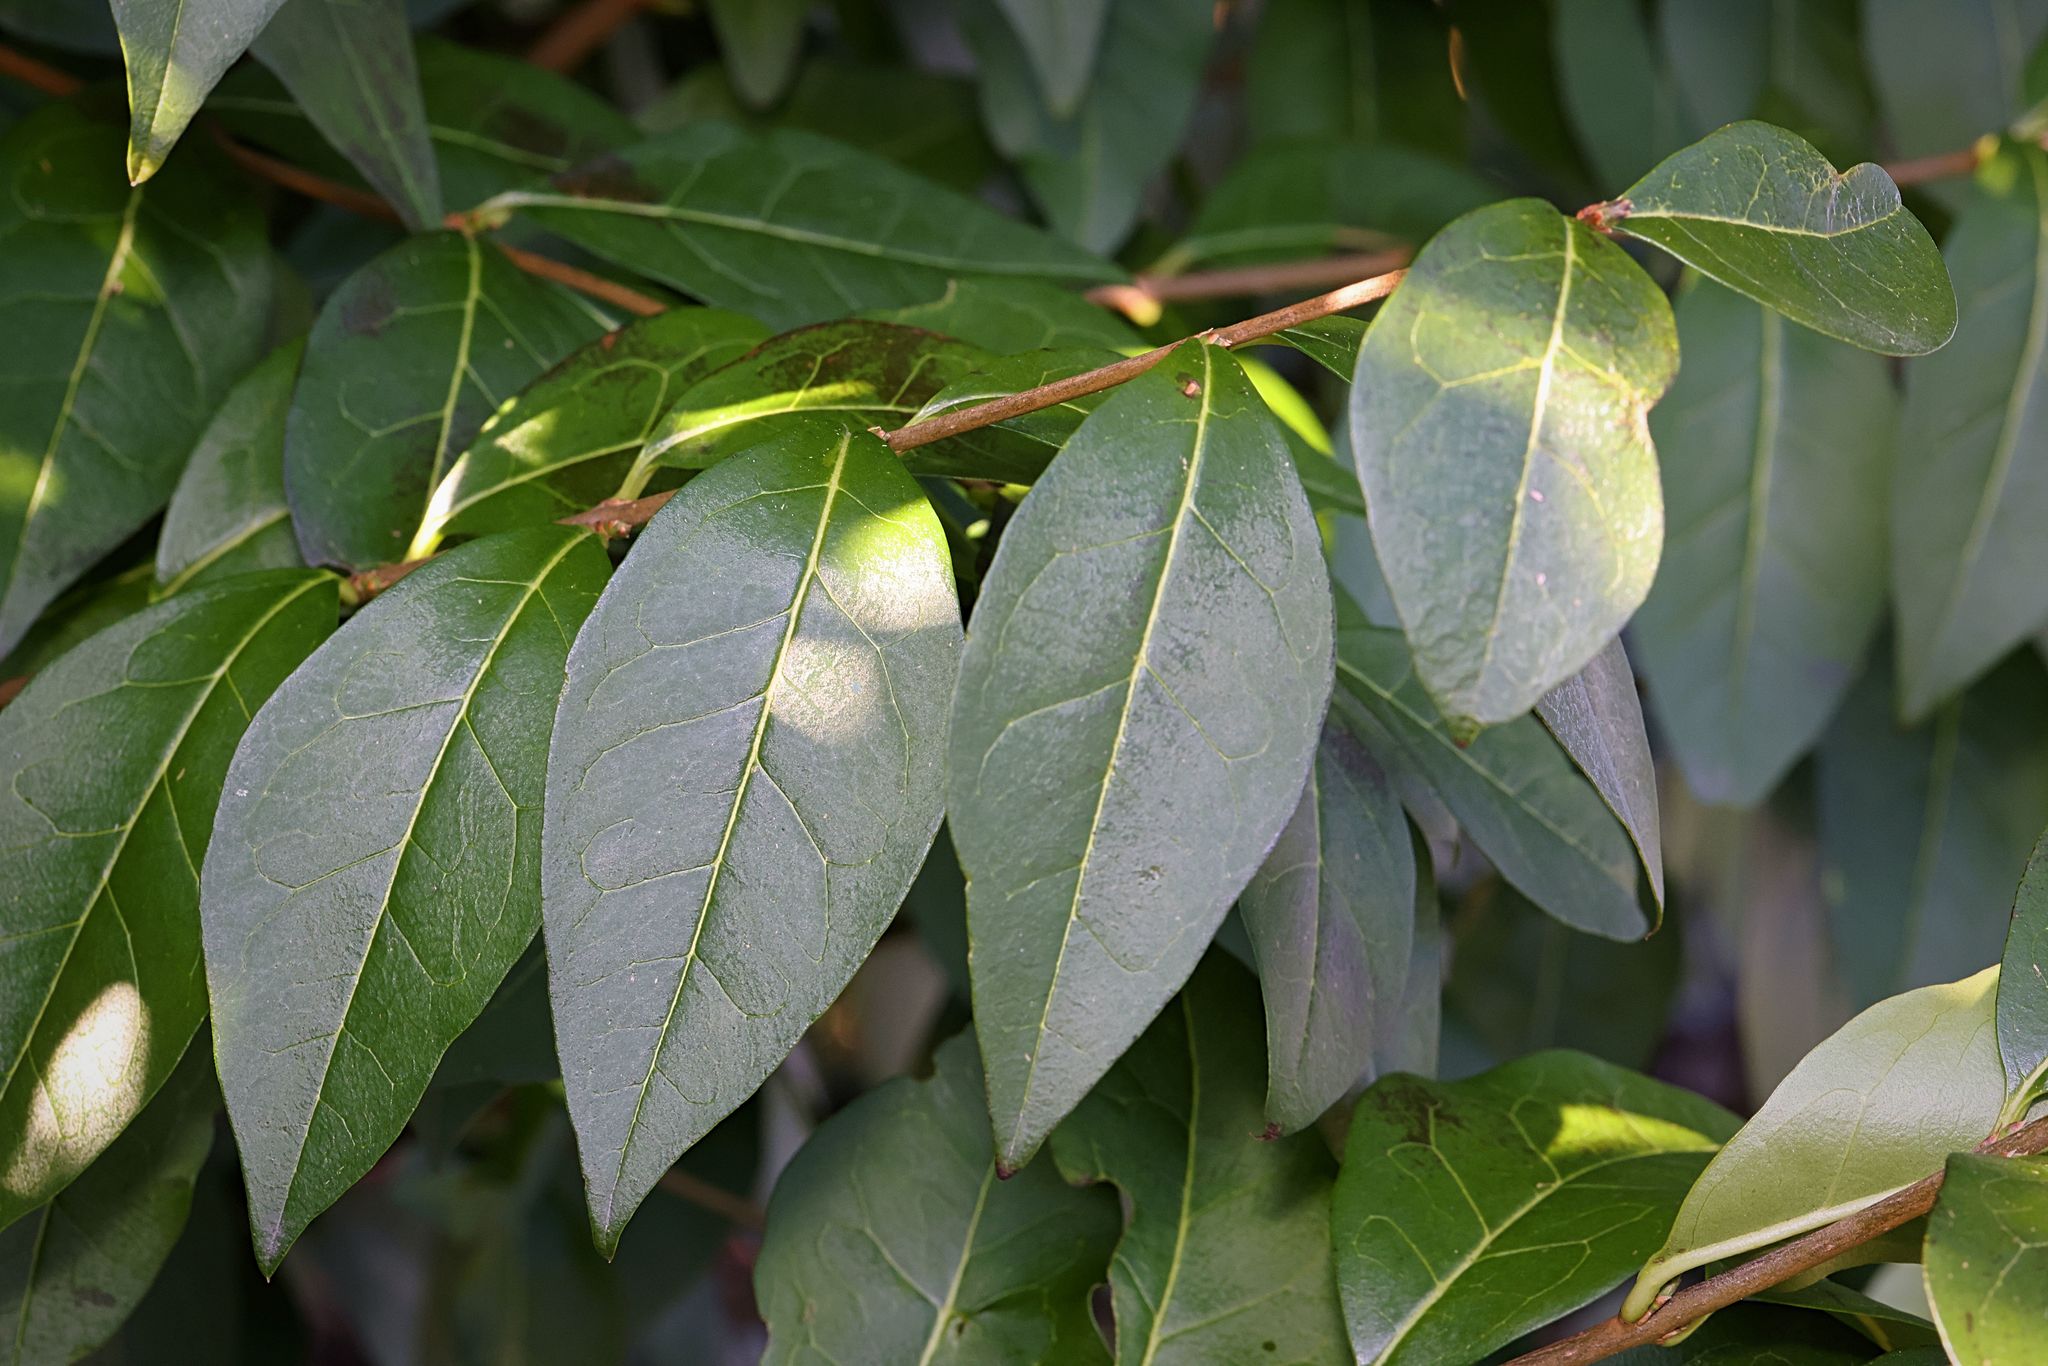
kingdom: Plantae
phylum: Tracheophyta
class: Magnoliopsida
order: Lamiales
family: Oleaceae
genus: Ligustrum
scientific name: Ligustrum vulgare
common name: Wild privet
